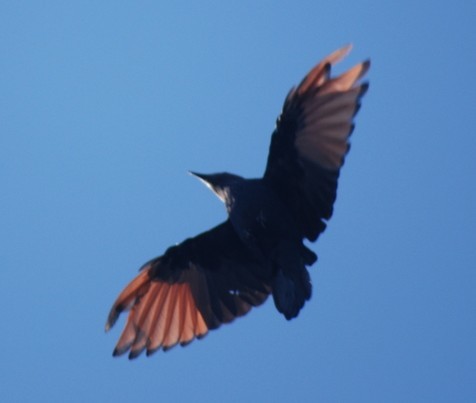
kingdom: Animalia
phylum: Chordata
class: Aves
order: Passeriformes
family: Sturnidae
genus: Onychognathus
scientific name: Onychognathus morio
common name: Red-winged starling
